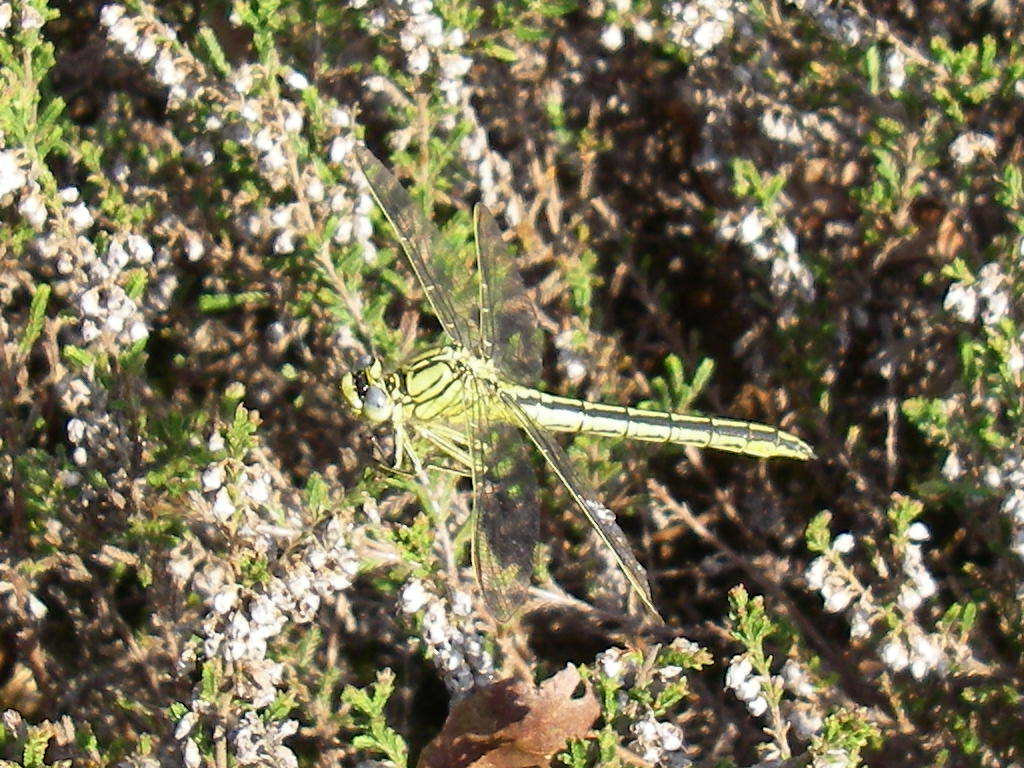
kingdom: Animalia
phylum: Arthropoda
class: Insecta
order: Odonata
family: Gomphidae
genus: Gomphus
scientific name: Gomphus pulchellus
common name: Western clubtail
